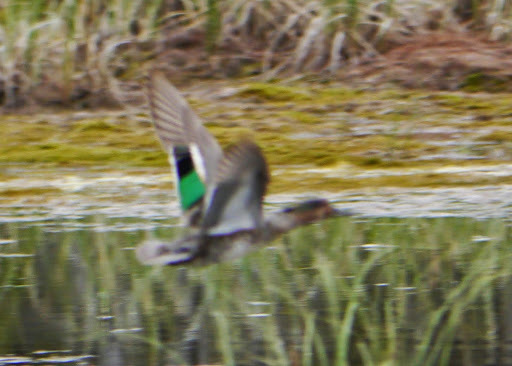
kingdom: Animalia
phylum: Chordata
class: Aves
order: Anseriformes
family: Anatidae
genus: Anas
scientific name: Anas crecca
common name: Eurasian teal
